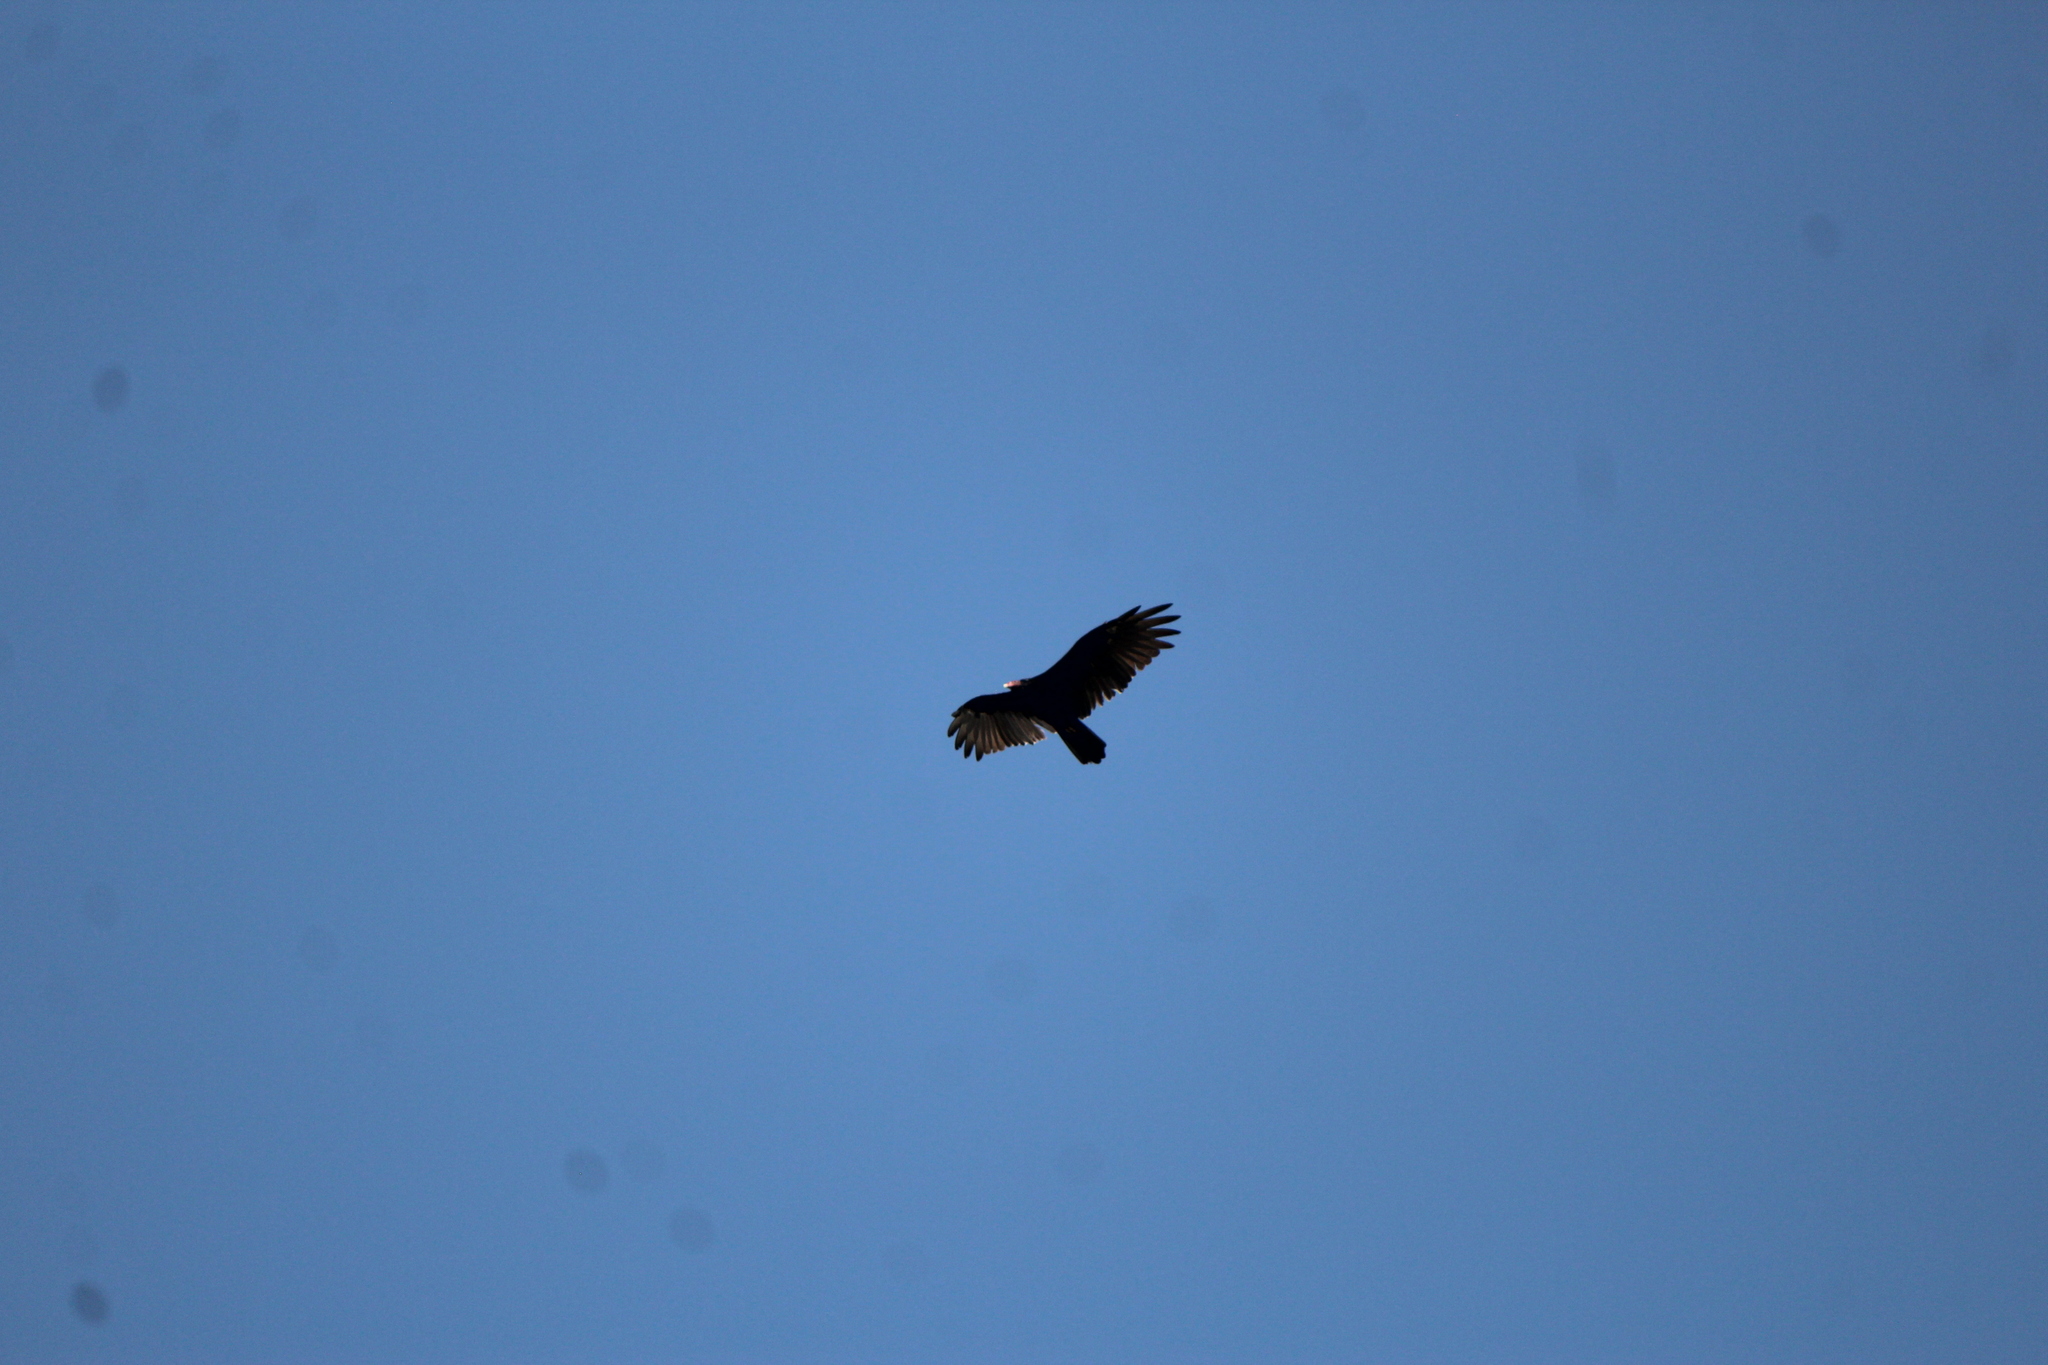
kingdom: Animalia
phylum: Chordata
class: Aves
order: Accipitriformes
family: Cathartidae
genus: Cathartes
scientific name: Cathartes aura
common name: Turkey vulture
